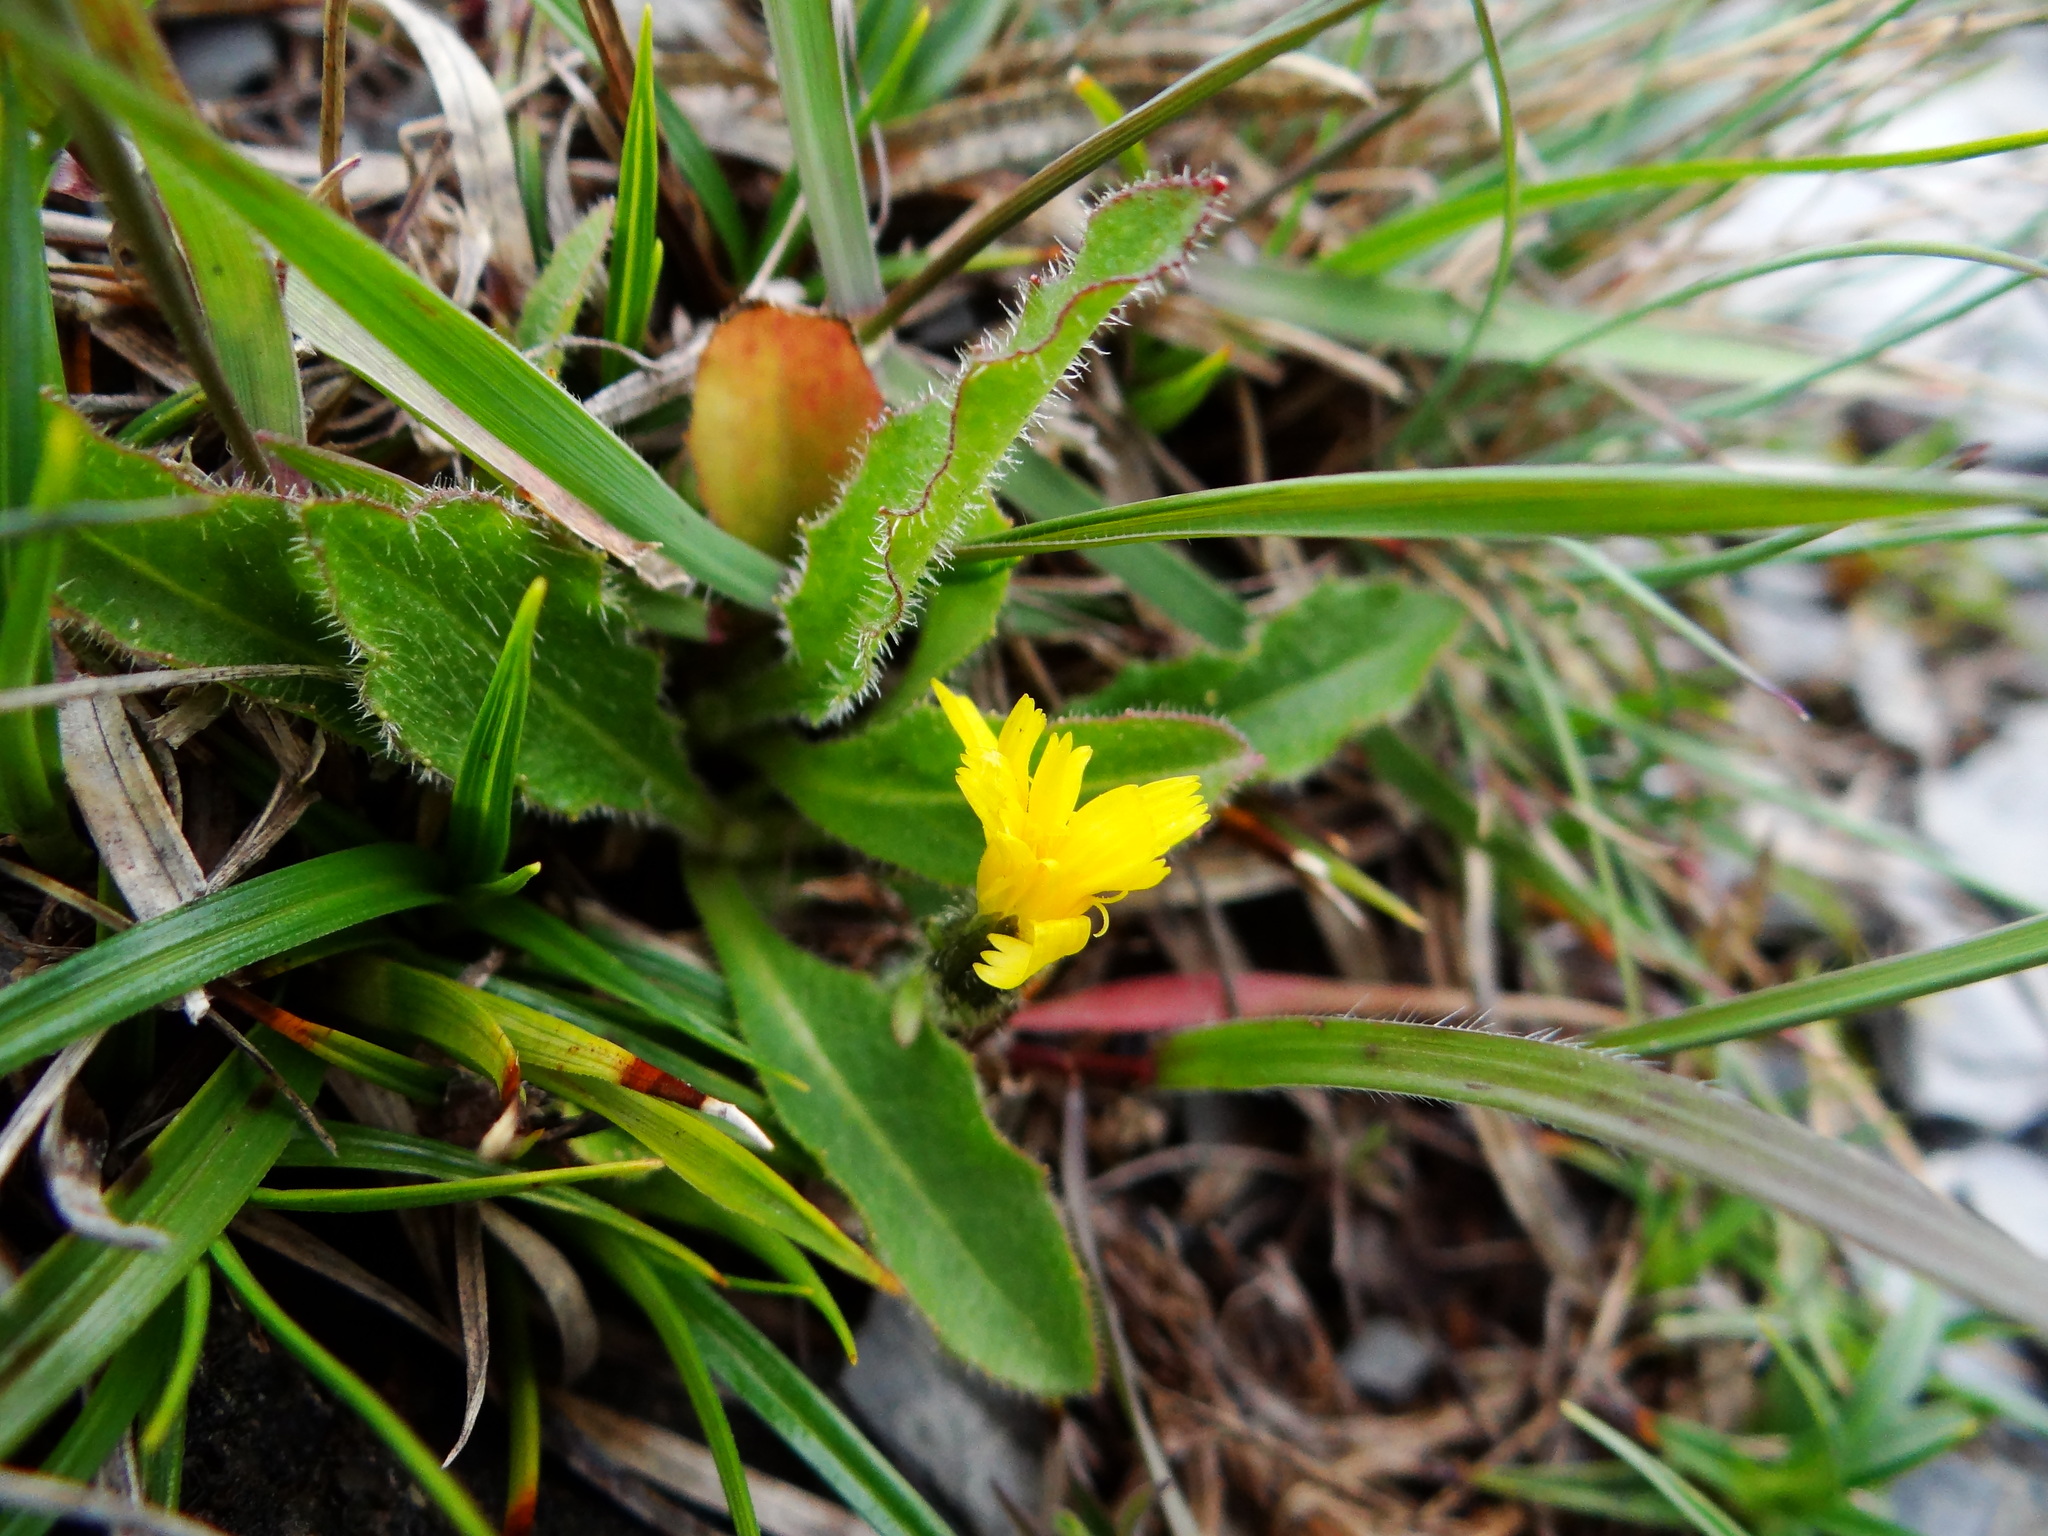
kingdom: Plantae
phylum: Tracheophyta
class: Magnoliopsida
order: Asterales
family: Asteraceae
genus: Picris
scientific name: Picris angustifolia
